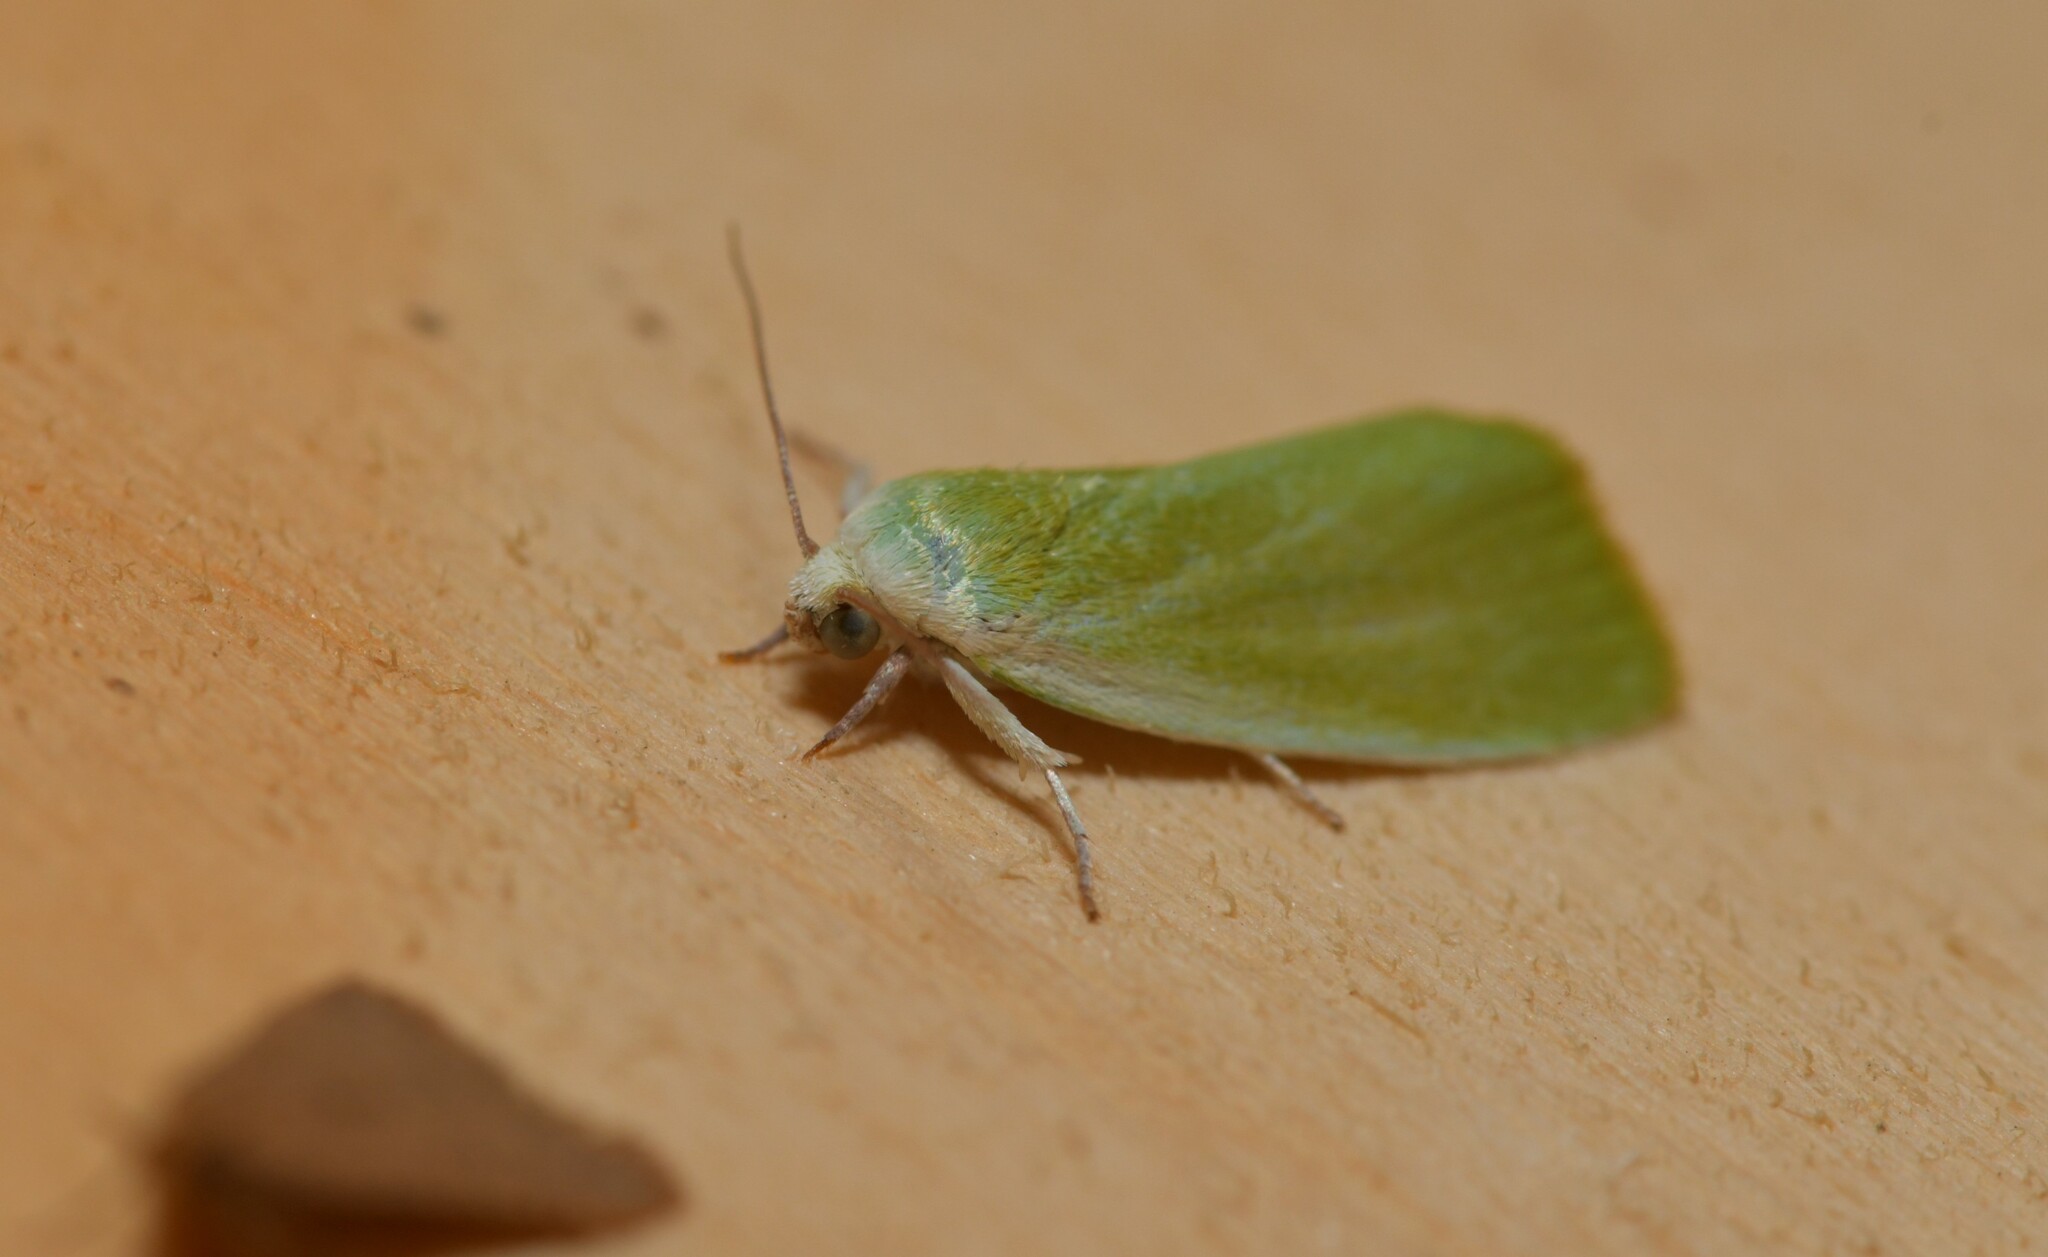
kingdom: Animalia
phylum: Arthropoda
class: Insecta
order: Lepidoptera
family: Nolidae
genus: Earias
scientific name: Earias clorana
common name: Cream-bordered green pea
